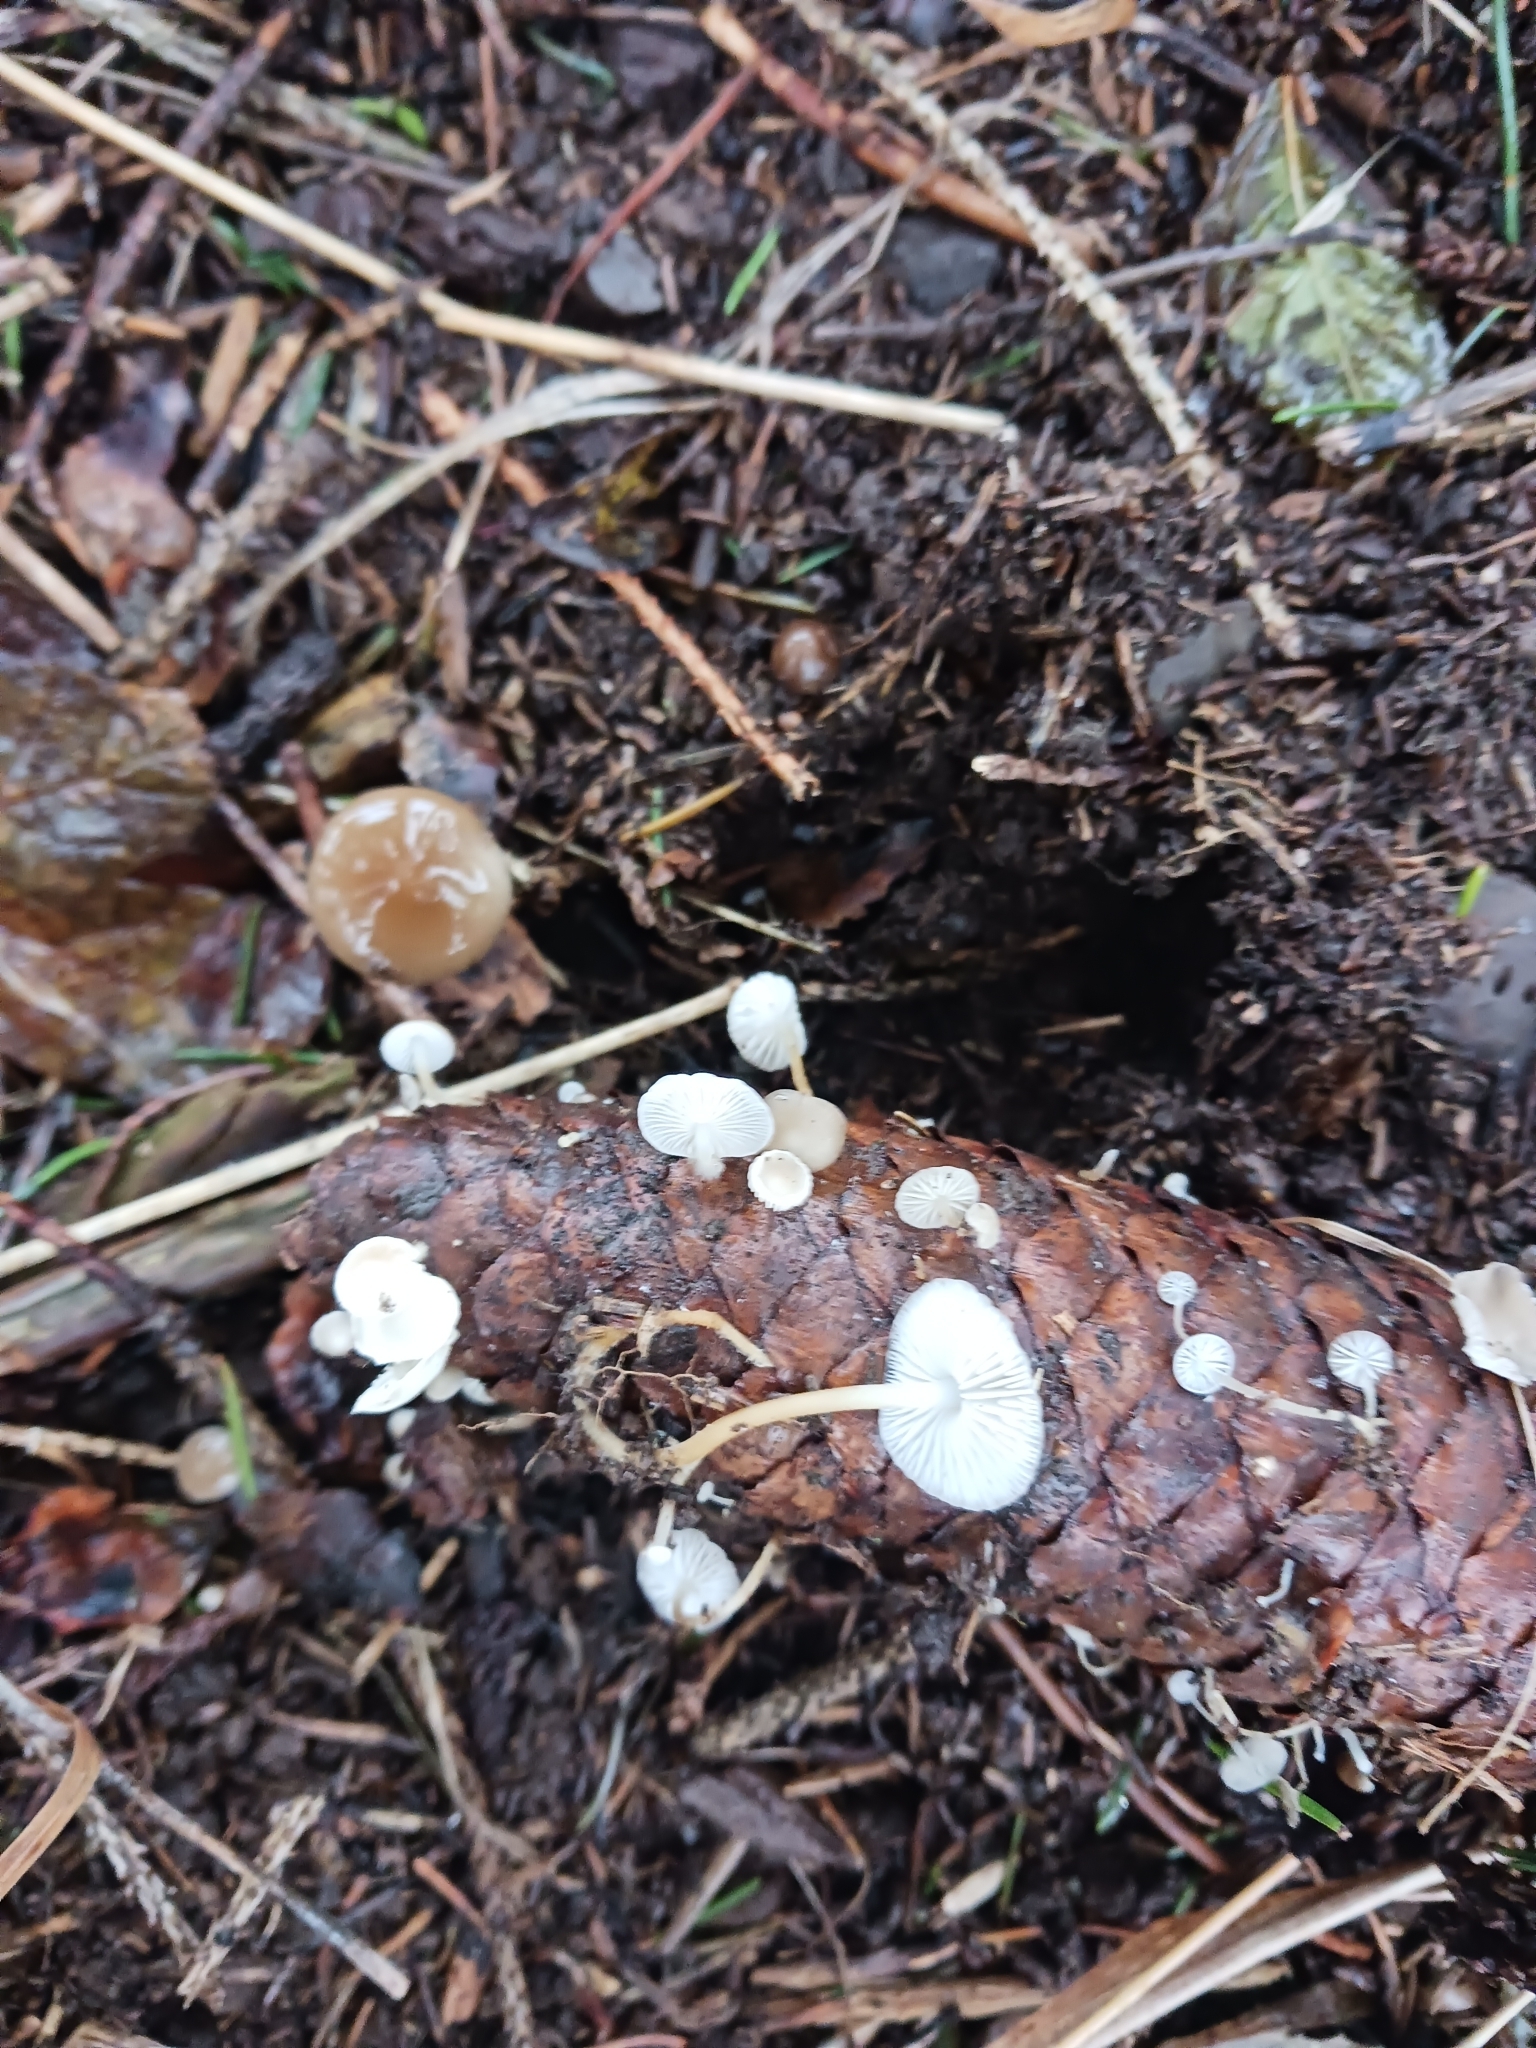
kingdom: Fungi
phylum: Basidiomycota
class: Agaricomycetes
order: Agaricales
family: Physalacriaceae
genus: Strobilurus
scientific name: Strobilurus conigenus
